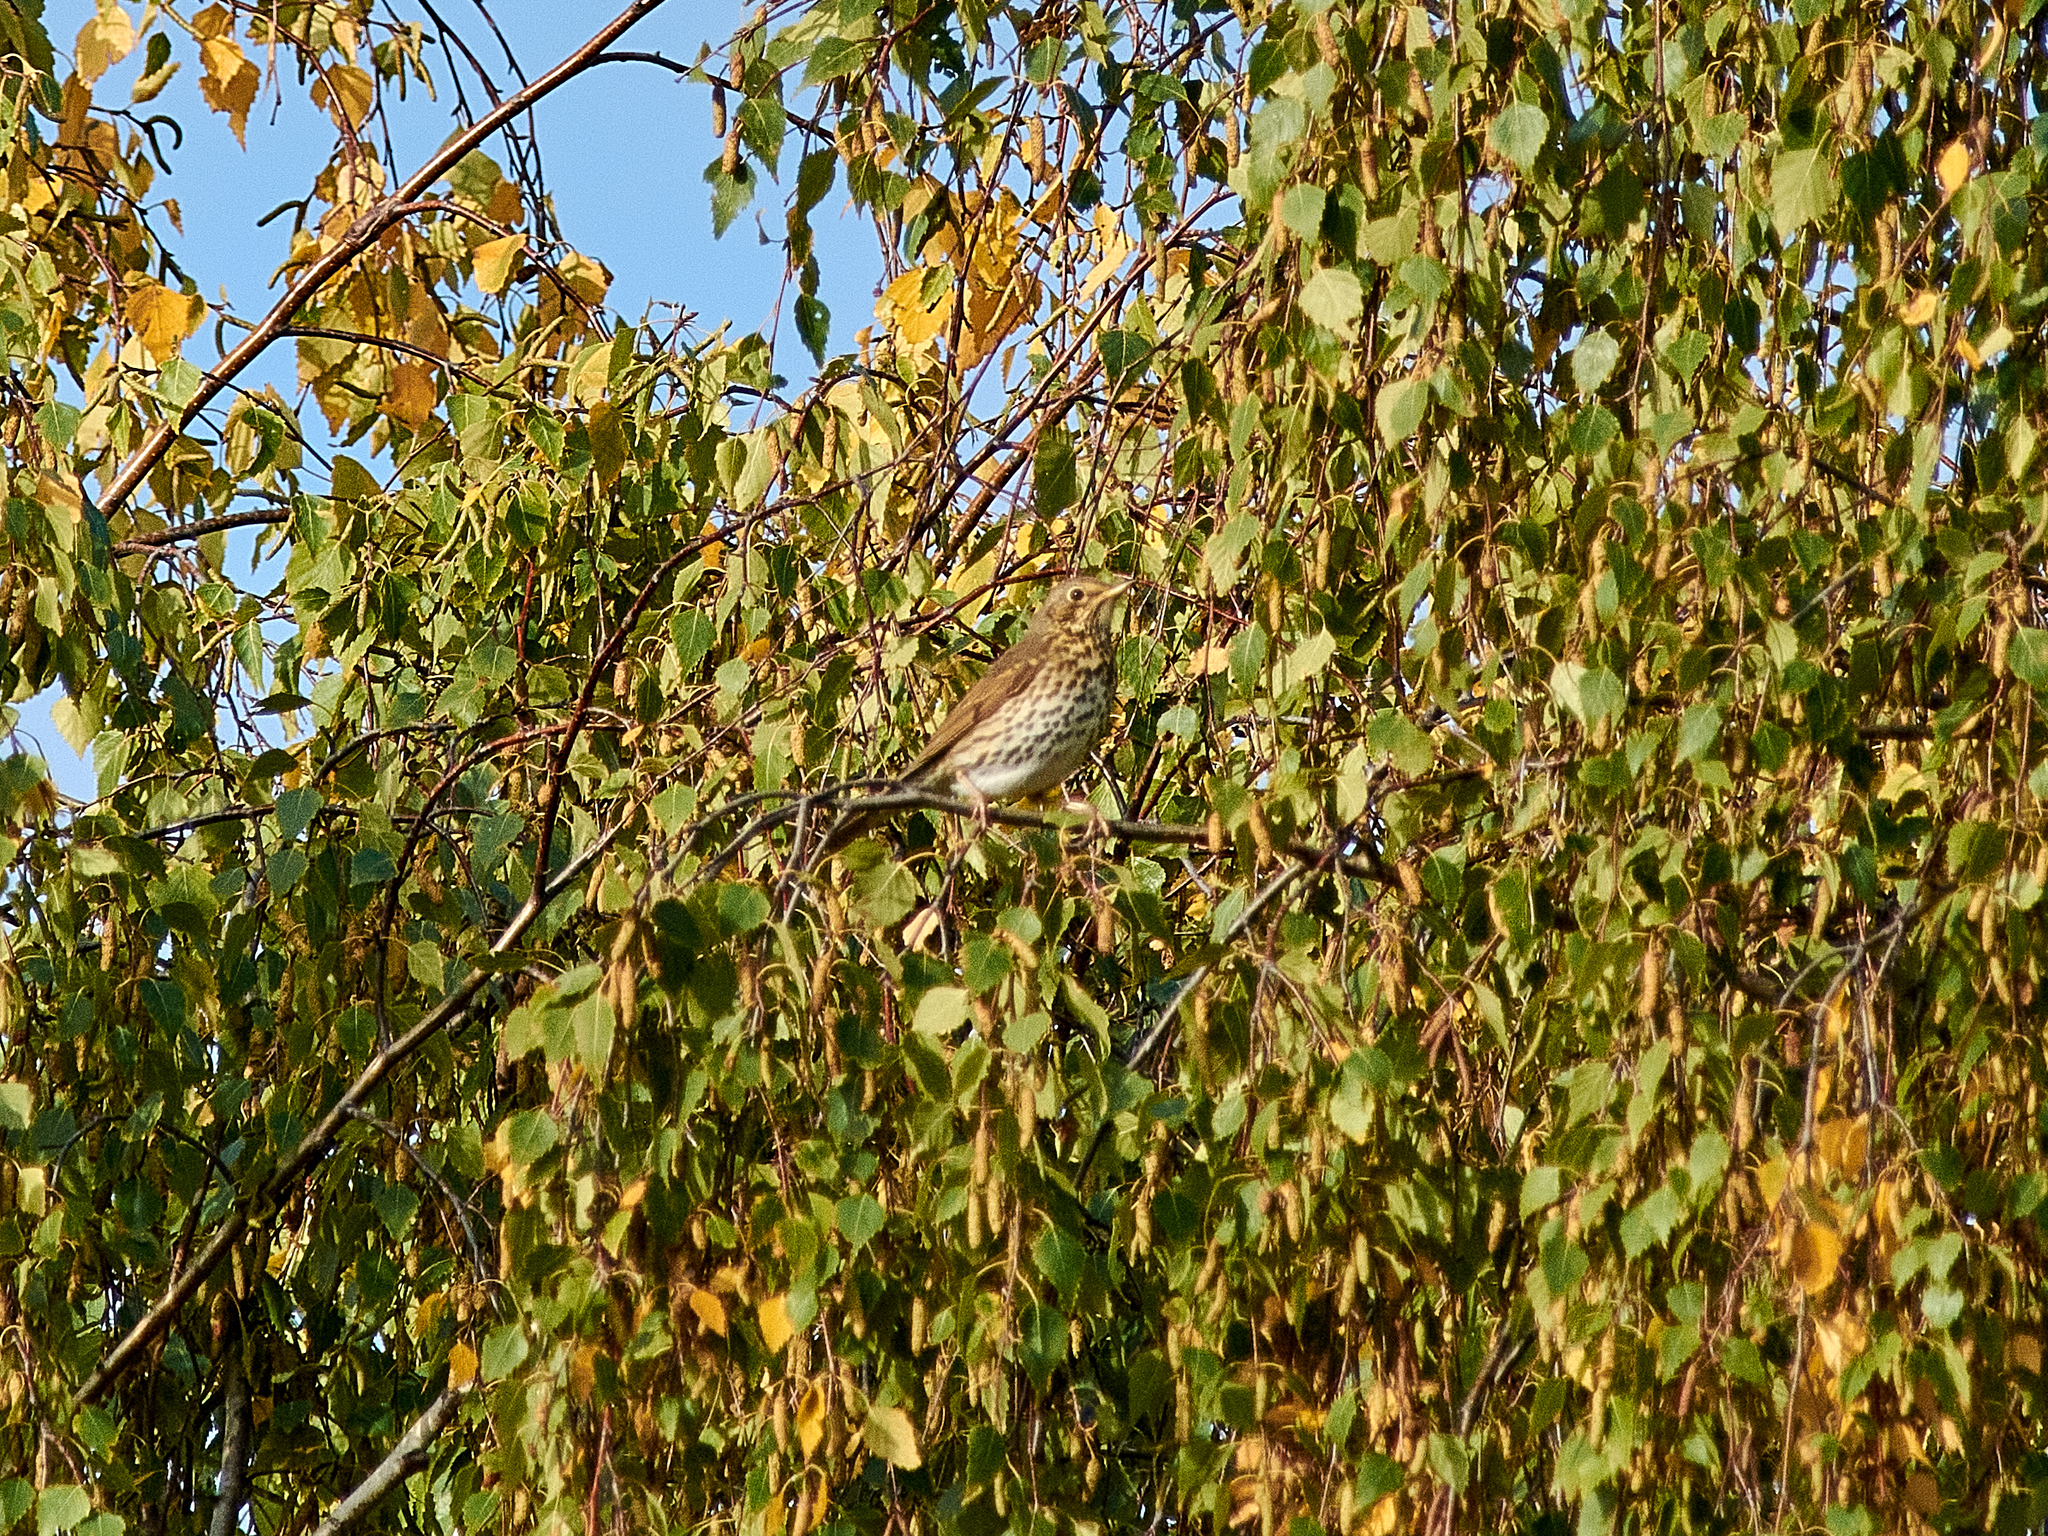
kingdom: Animalia
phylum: Chordata
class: Aves
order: Passeriformes
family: Turdidae
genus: Turdus
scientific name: Turdus philomelos
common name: Song thrush
